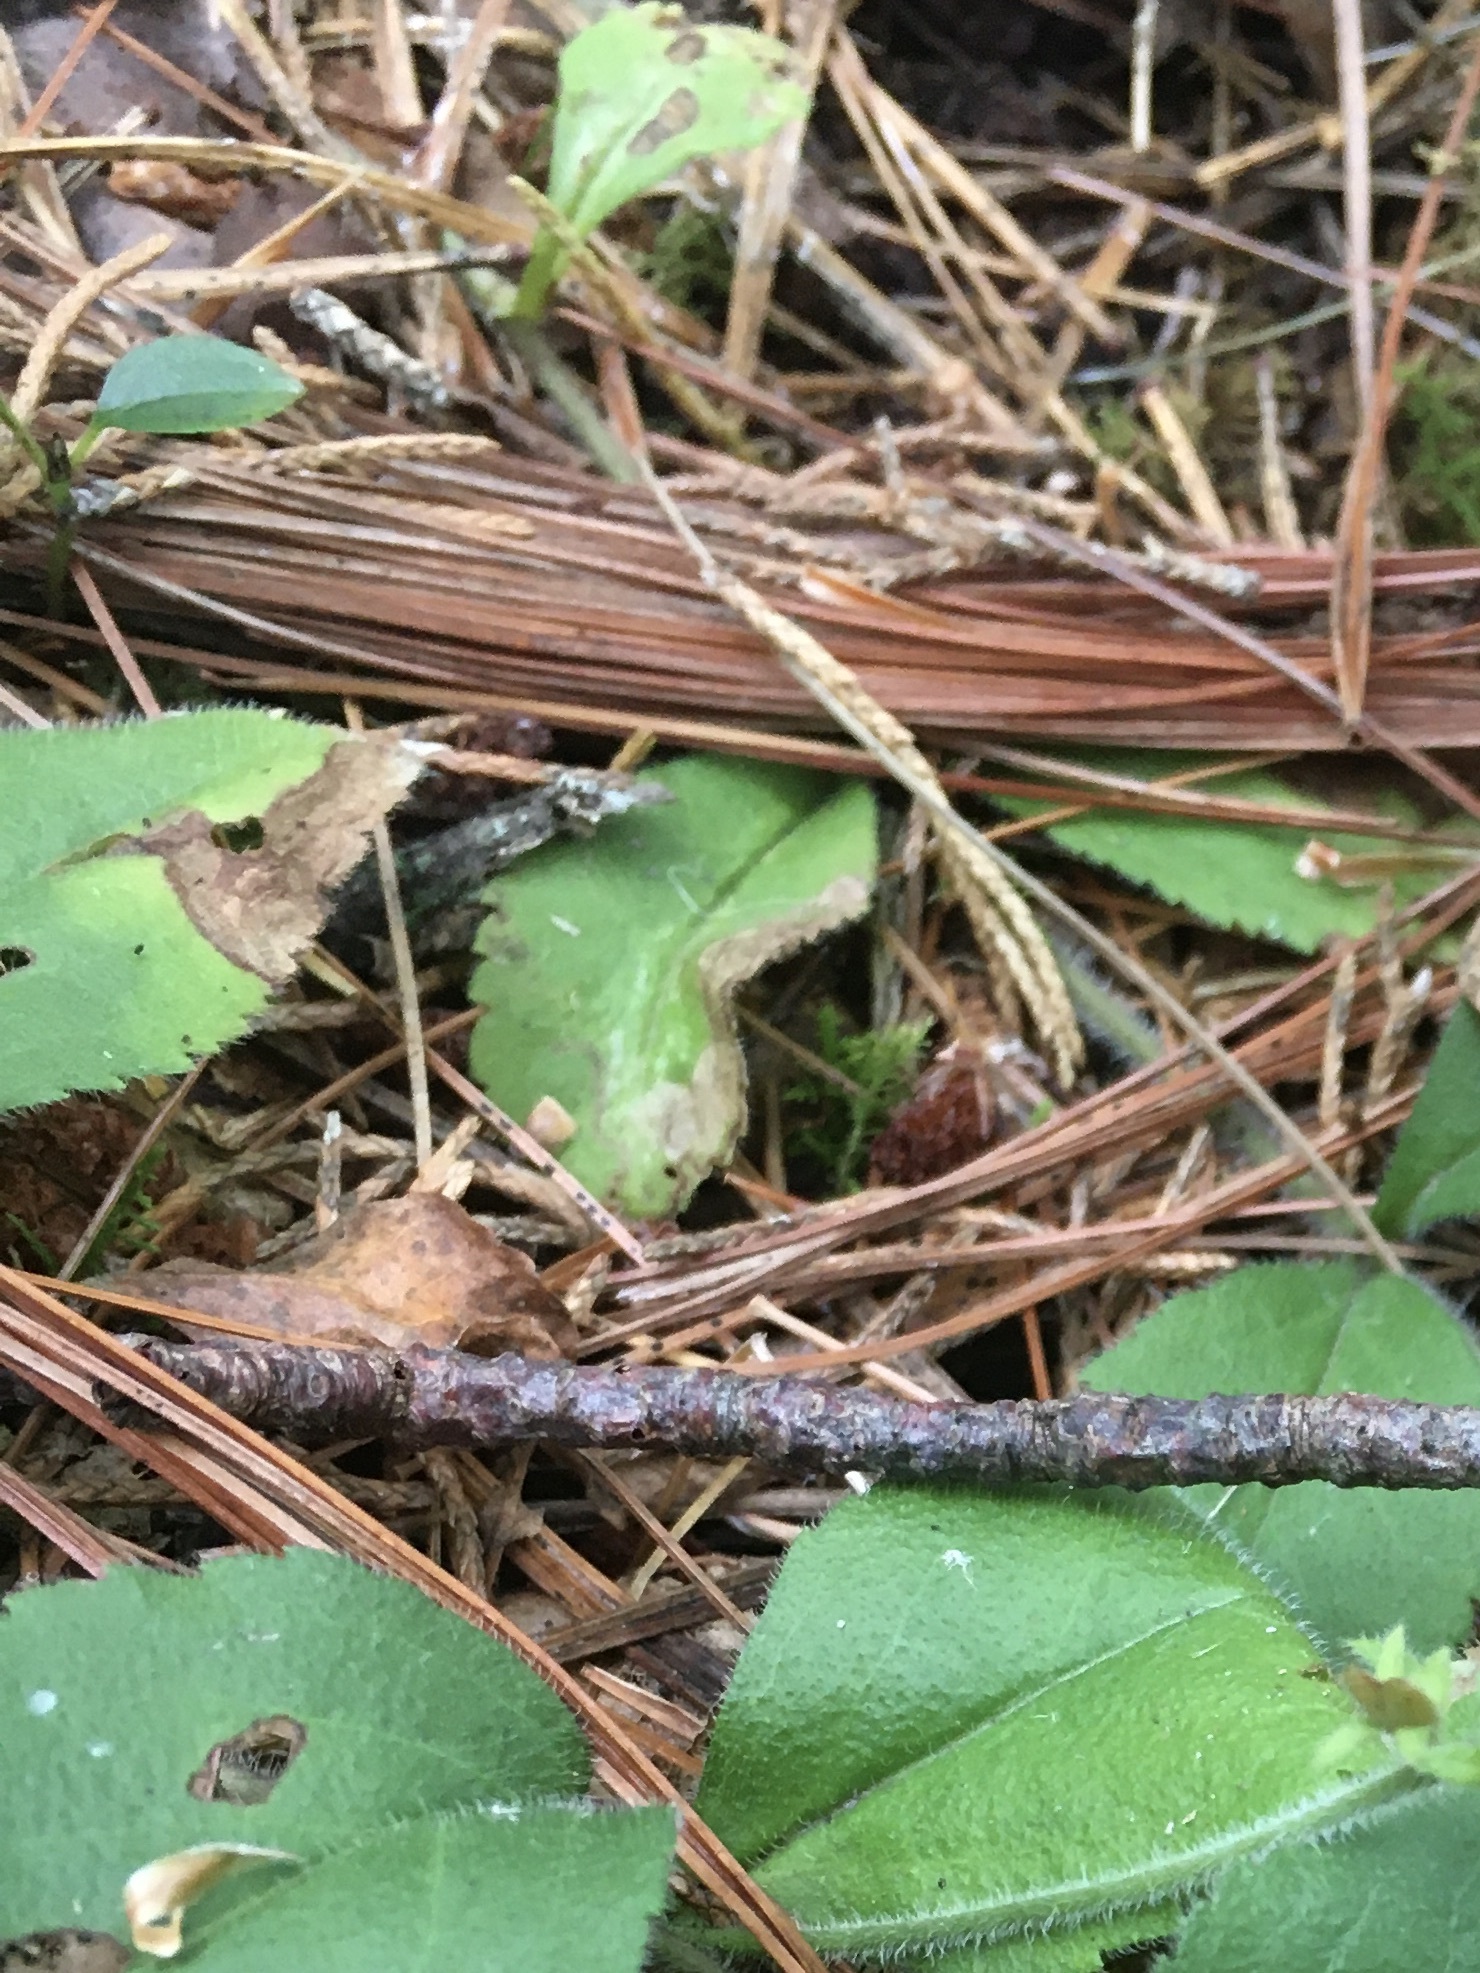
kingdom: Animalia
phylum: Arthropoda
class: Insecta
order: Diptera
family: Agromyzidae
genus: Phytomyza
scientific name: Phytomyza crassiseta
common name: Leaf-miner fly
